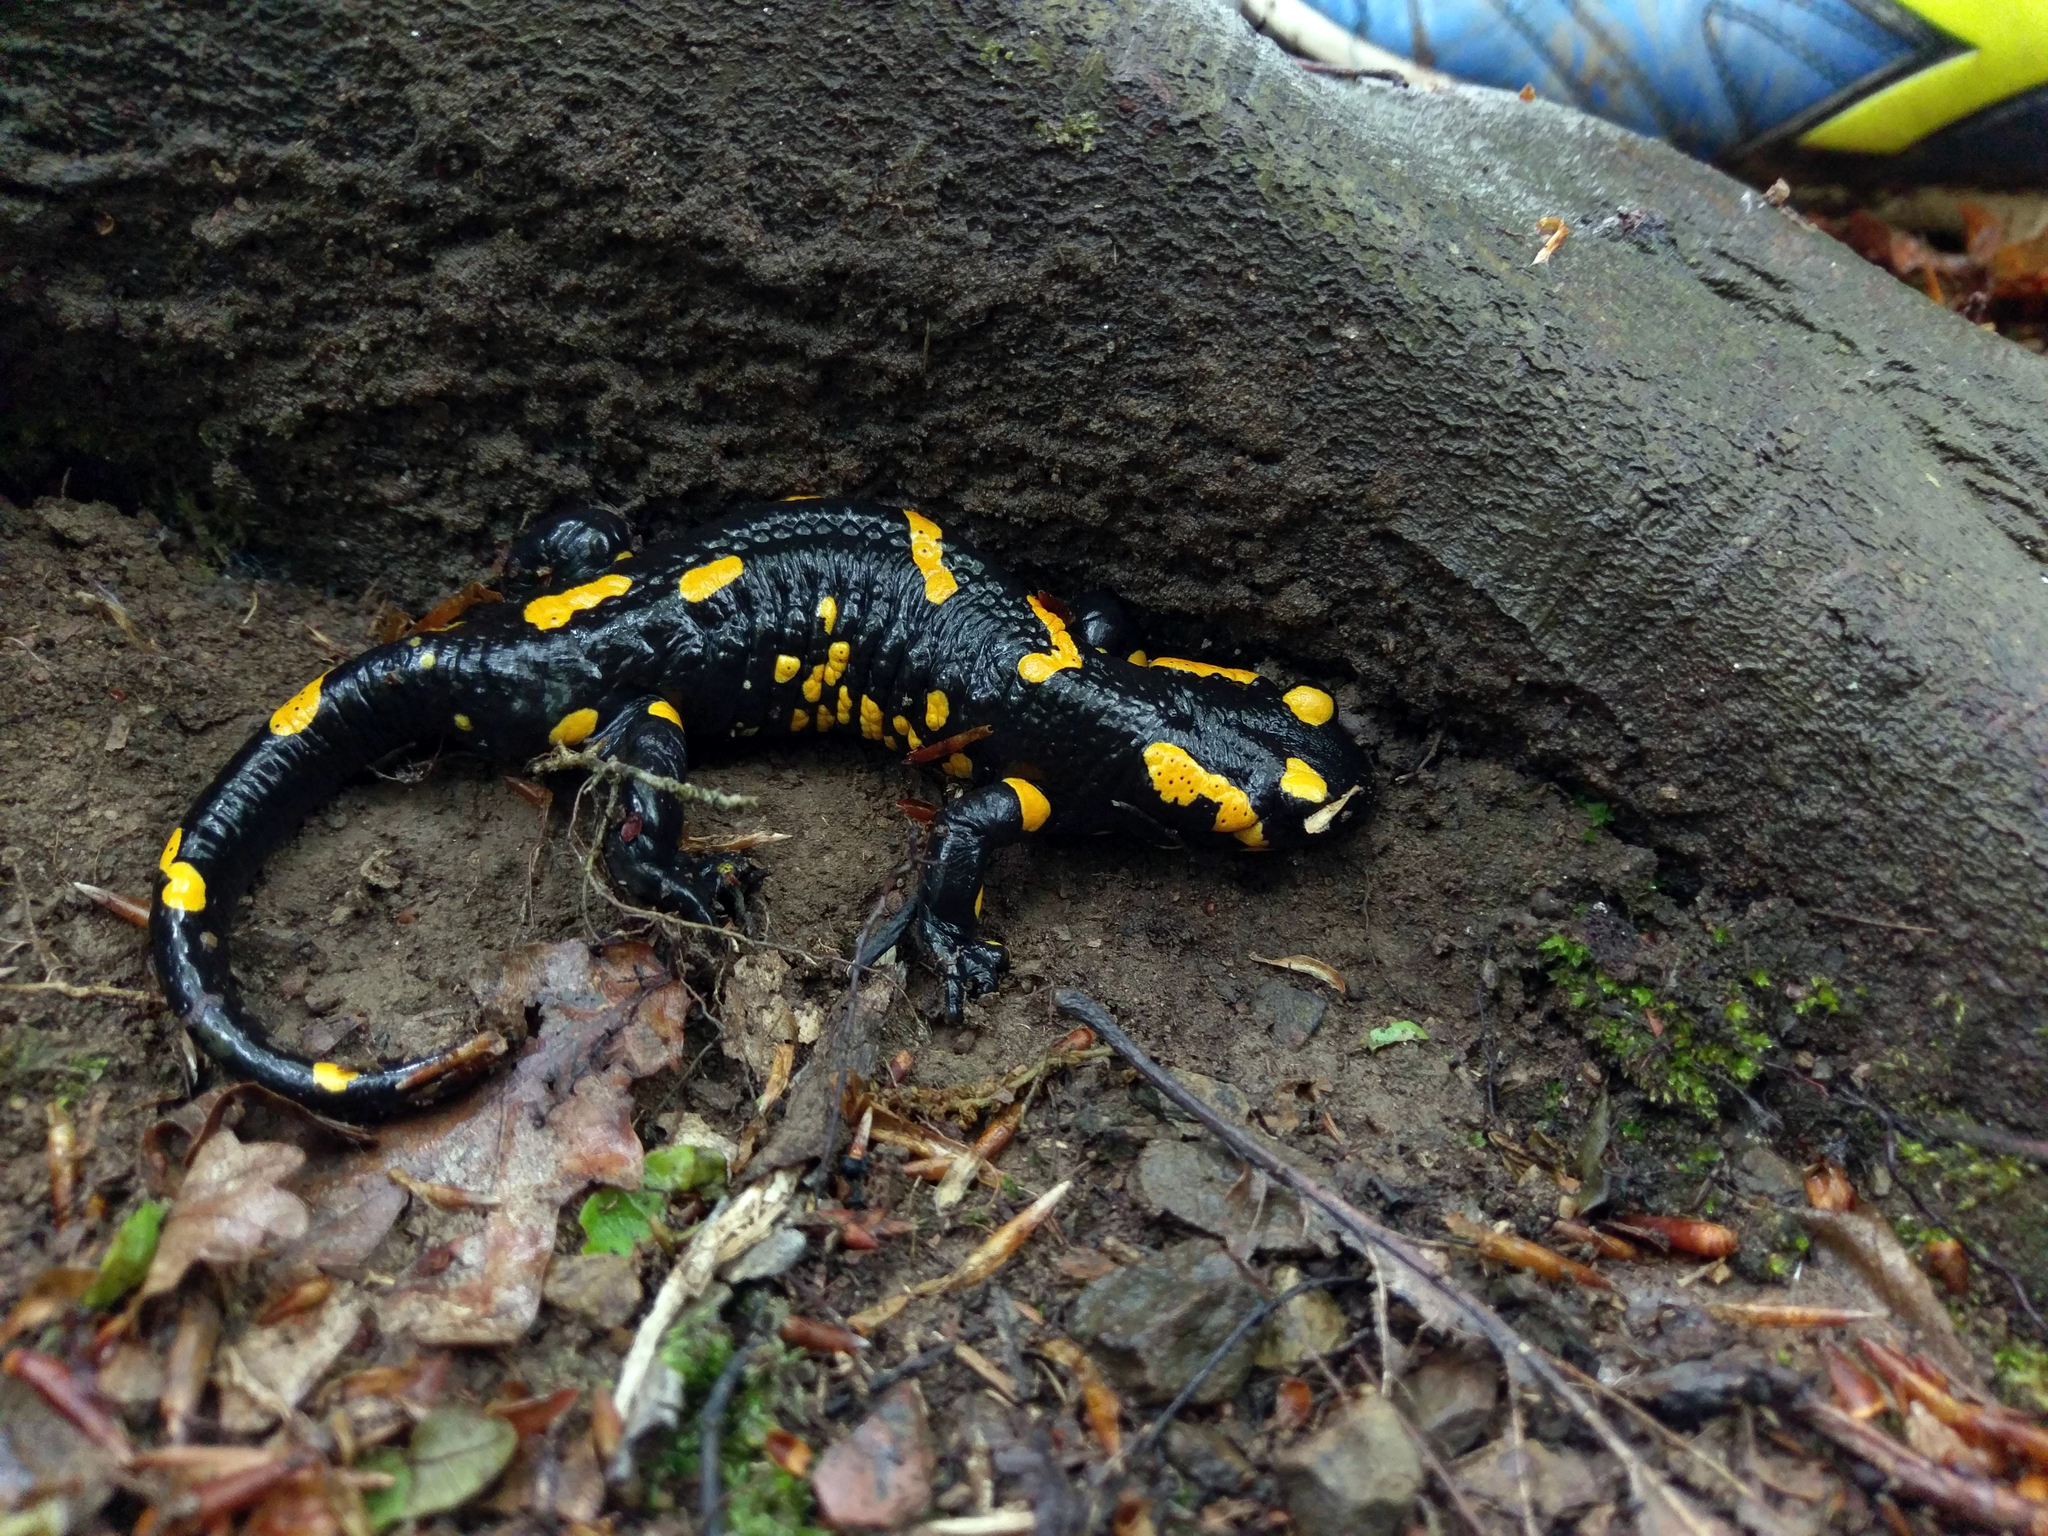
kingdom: Animalia
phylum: Chordata
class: Amphibia
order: Caudata
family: Salamandridae
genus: Salamandra
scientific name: Salamandra salamandra
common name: Fire salamander
